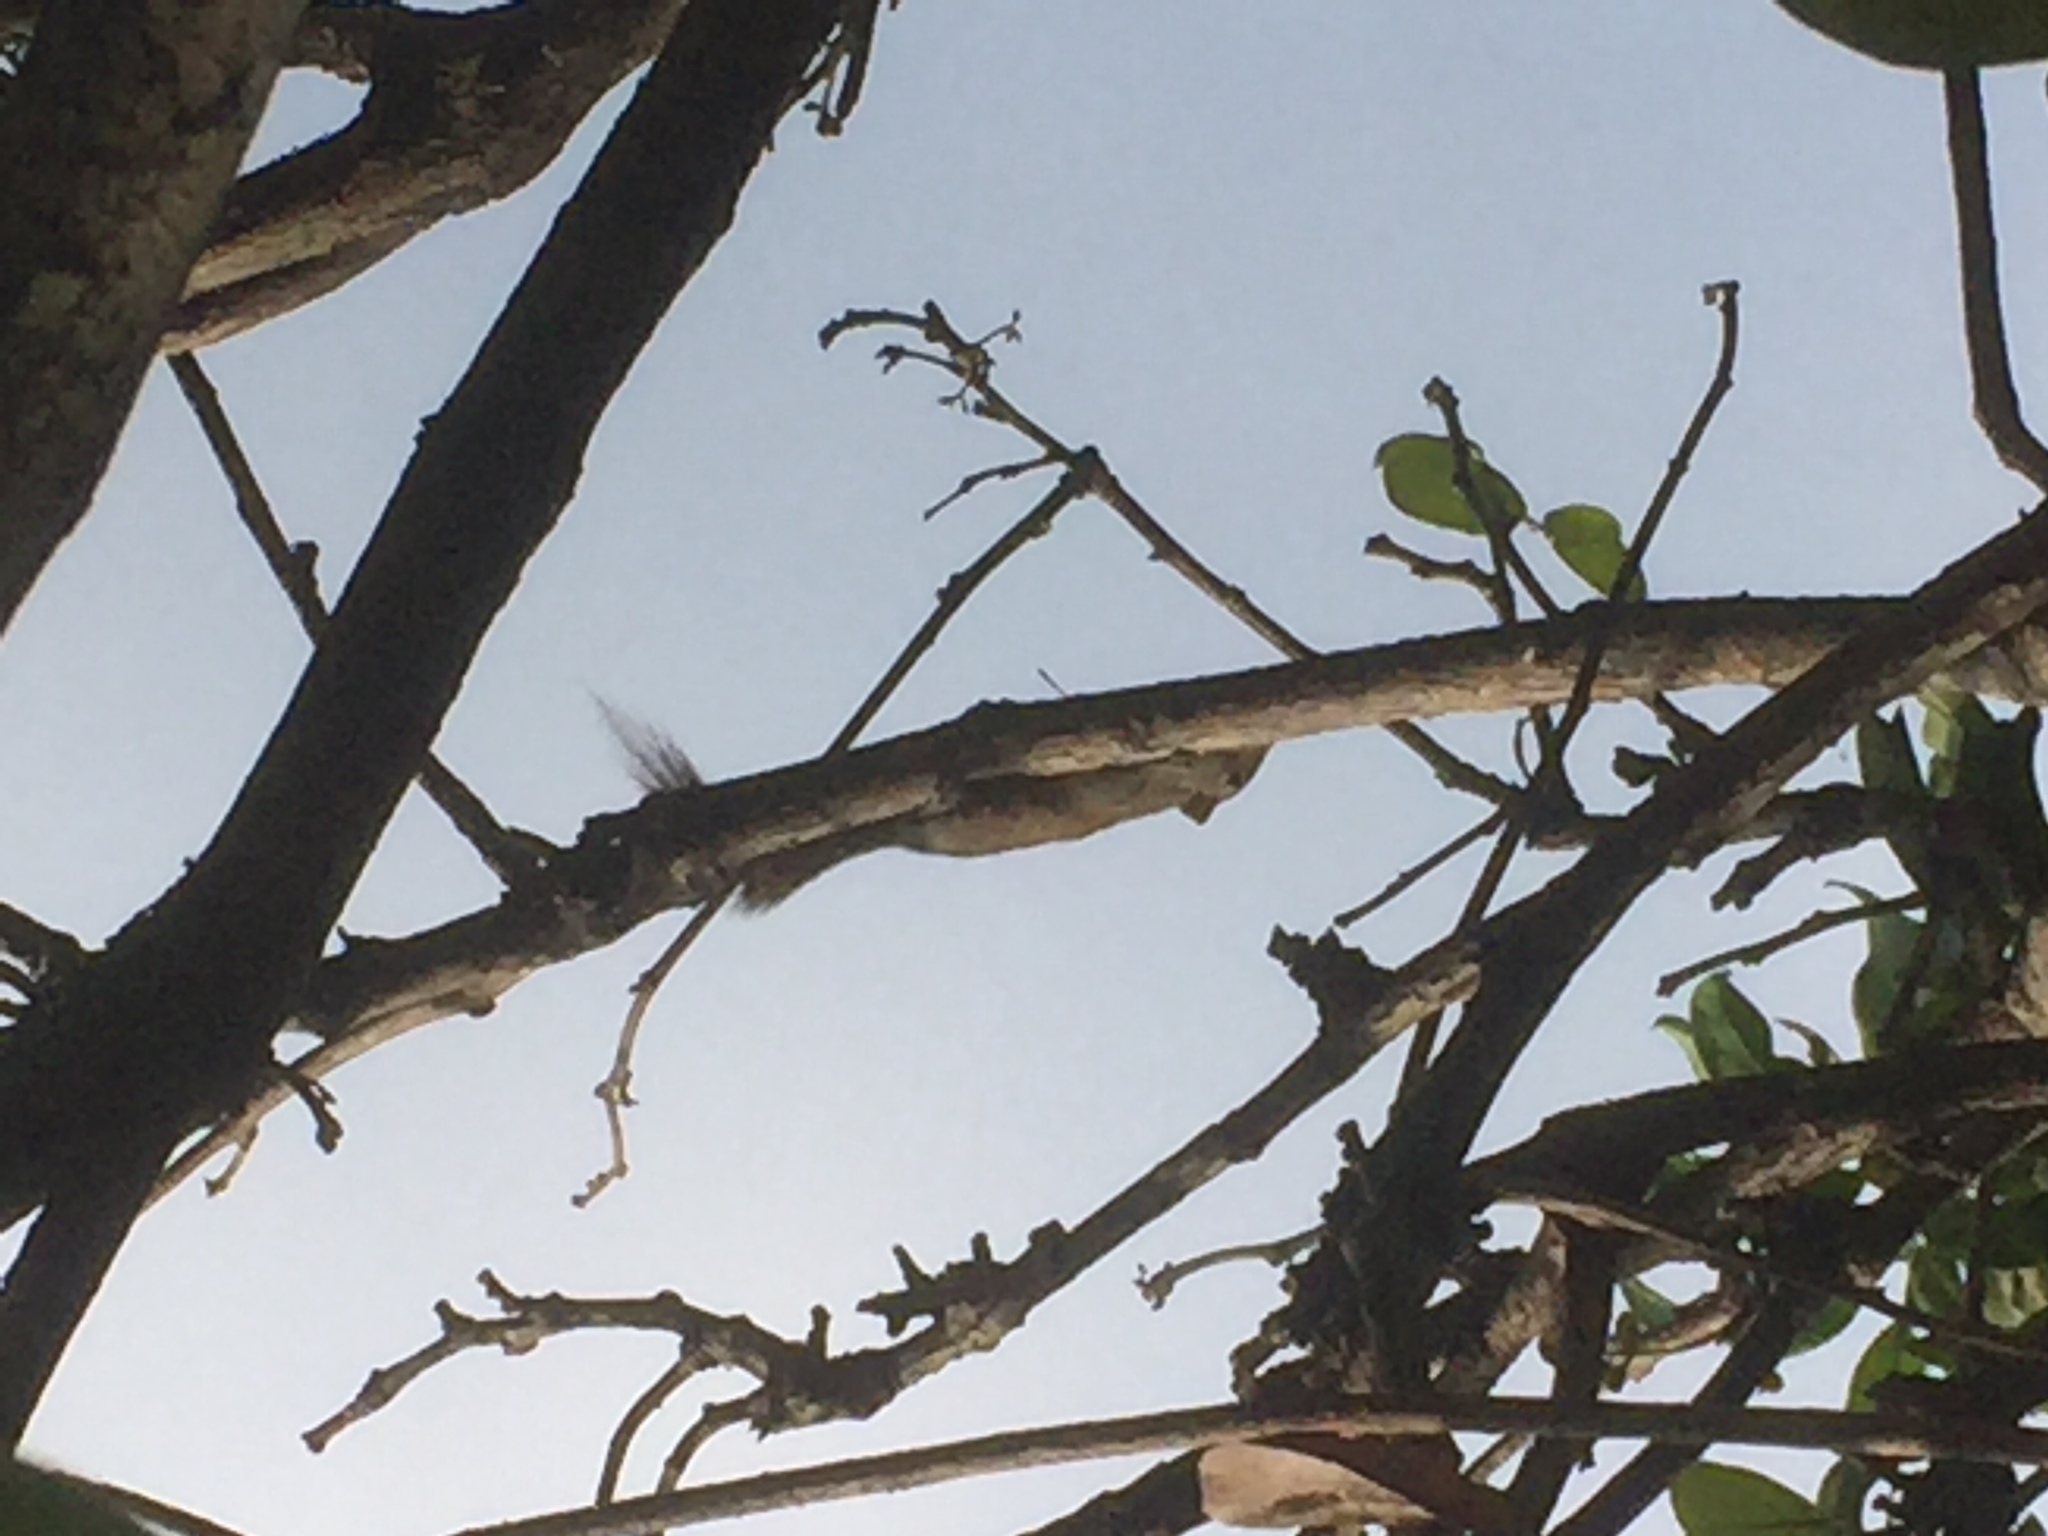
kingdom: Animalia
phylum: Chordata
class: Mammalia
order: Rodentia
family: Sciuridae
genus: Funambulus
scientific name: Funambulus palmarum
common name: Indian palm squirrel
